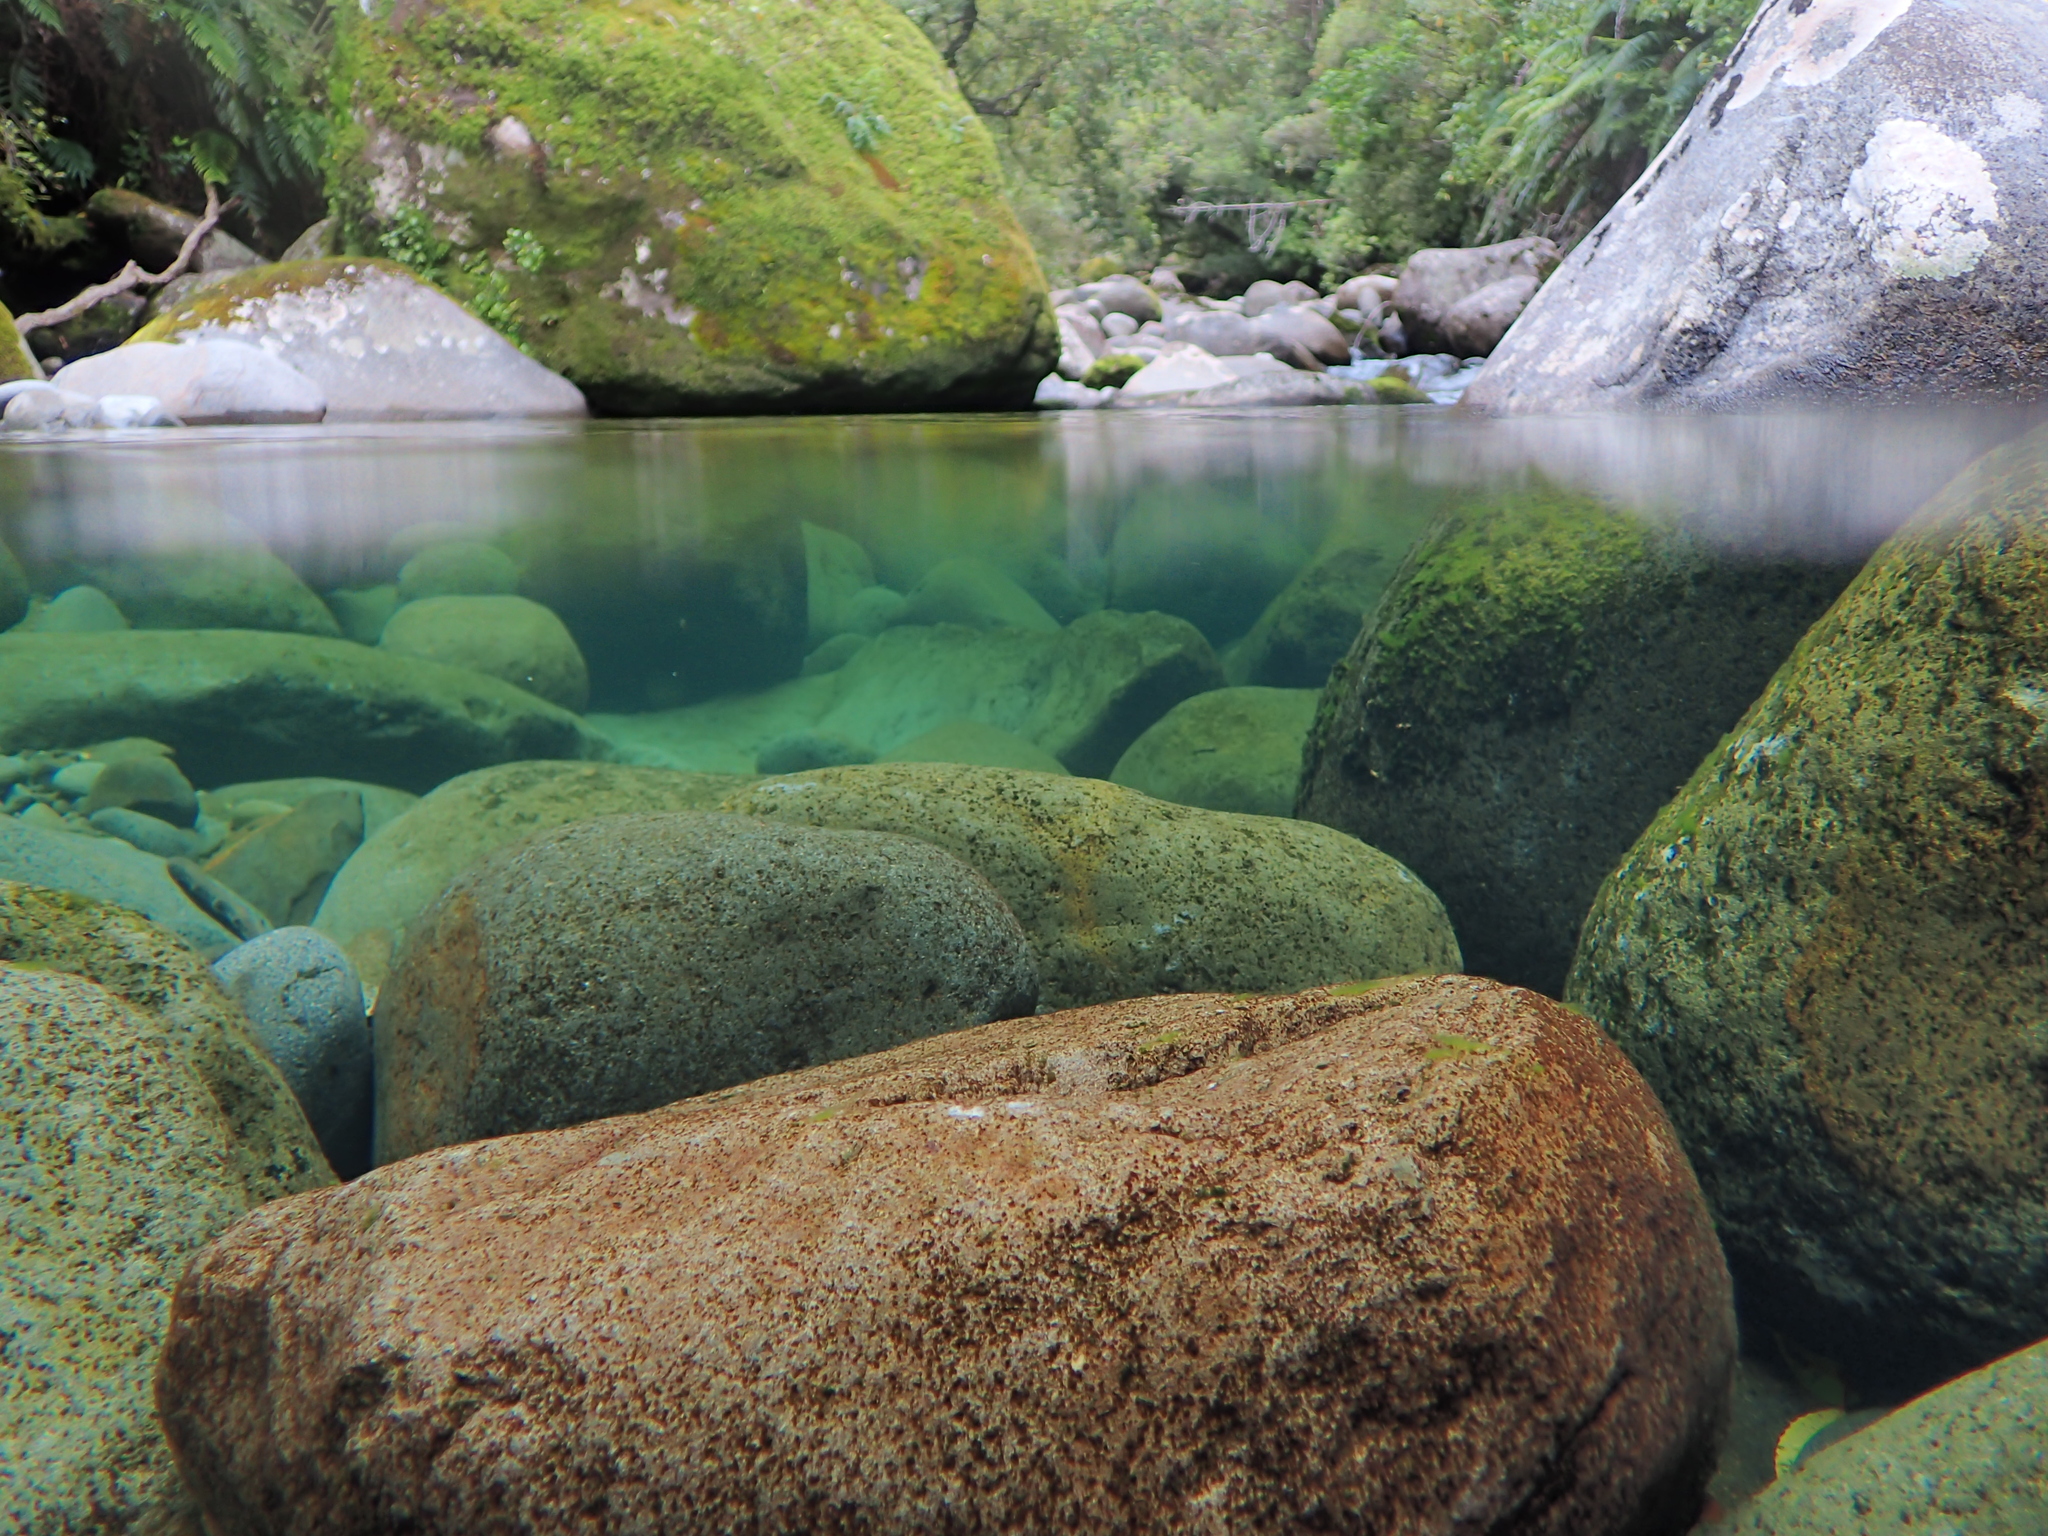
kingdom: Animalia
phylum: Arthropoda
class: Insecta
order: Ephemeroptera
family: Ameletopsidae
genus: Ameletopsis
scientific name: Ameletopsis perscitus
